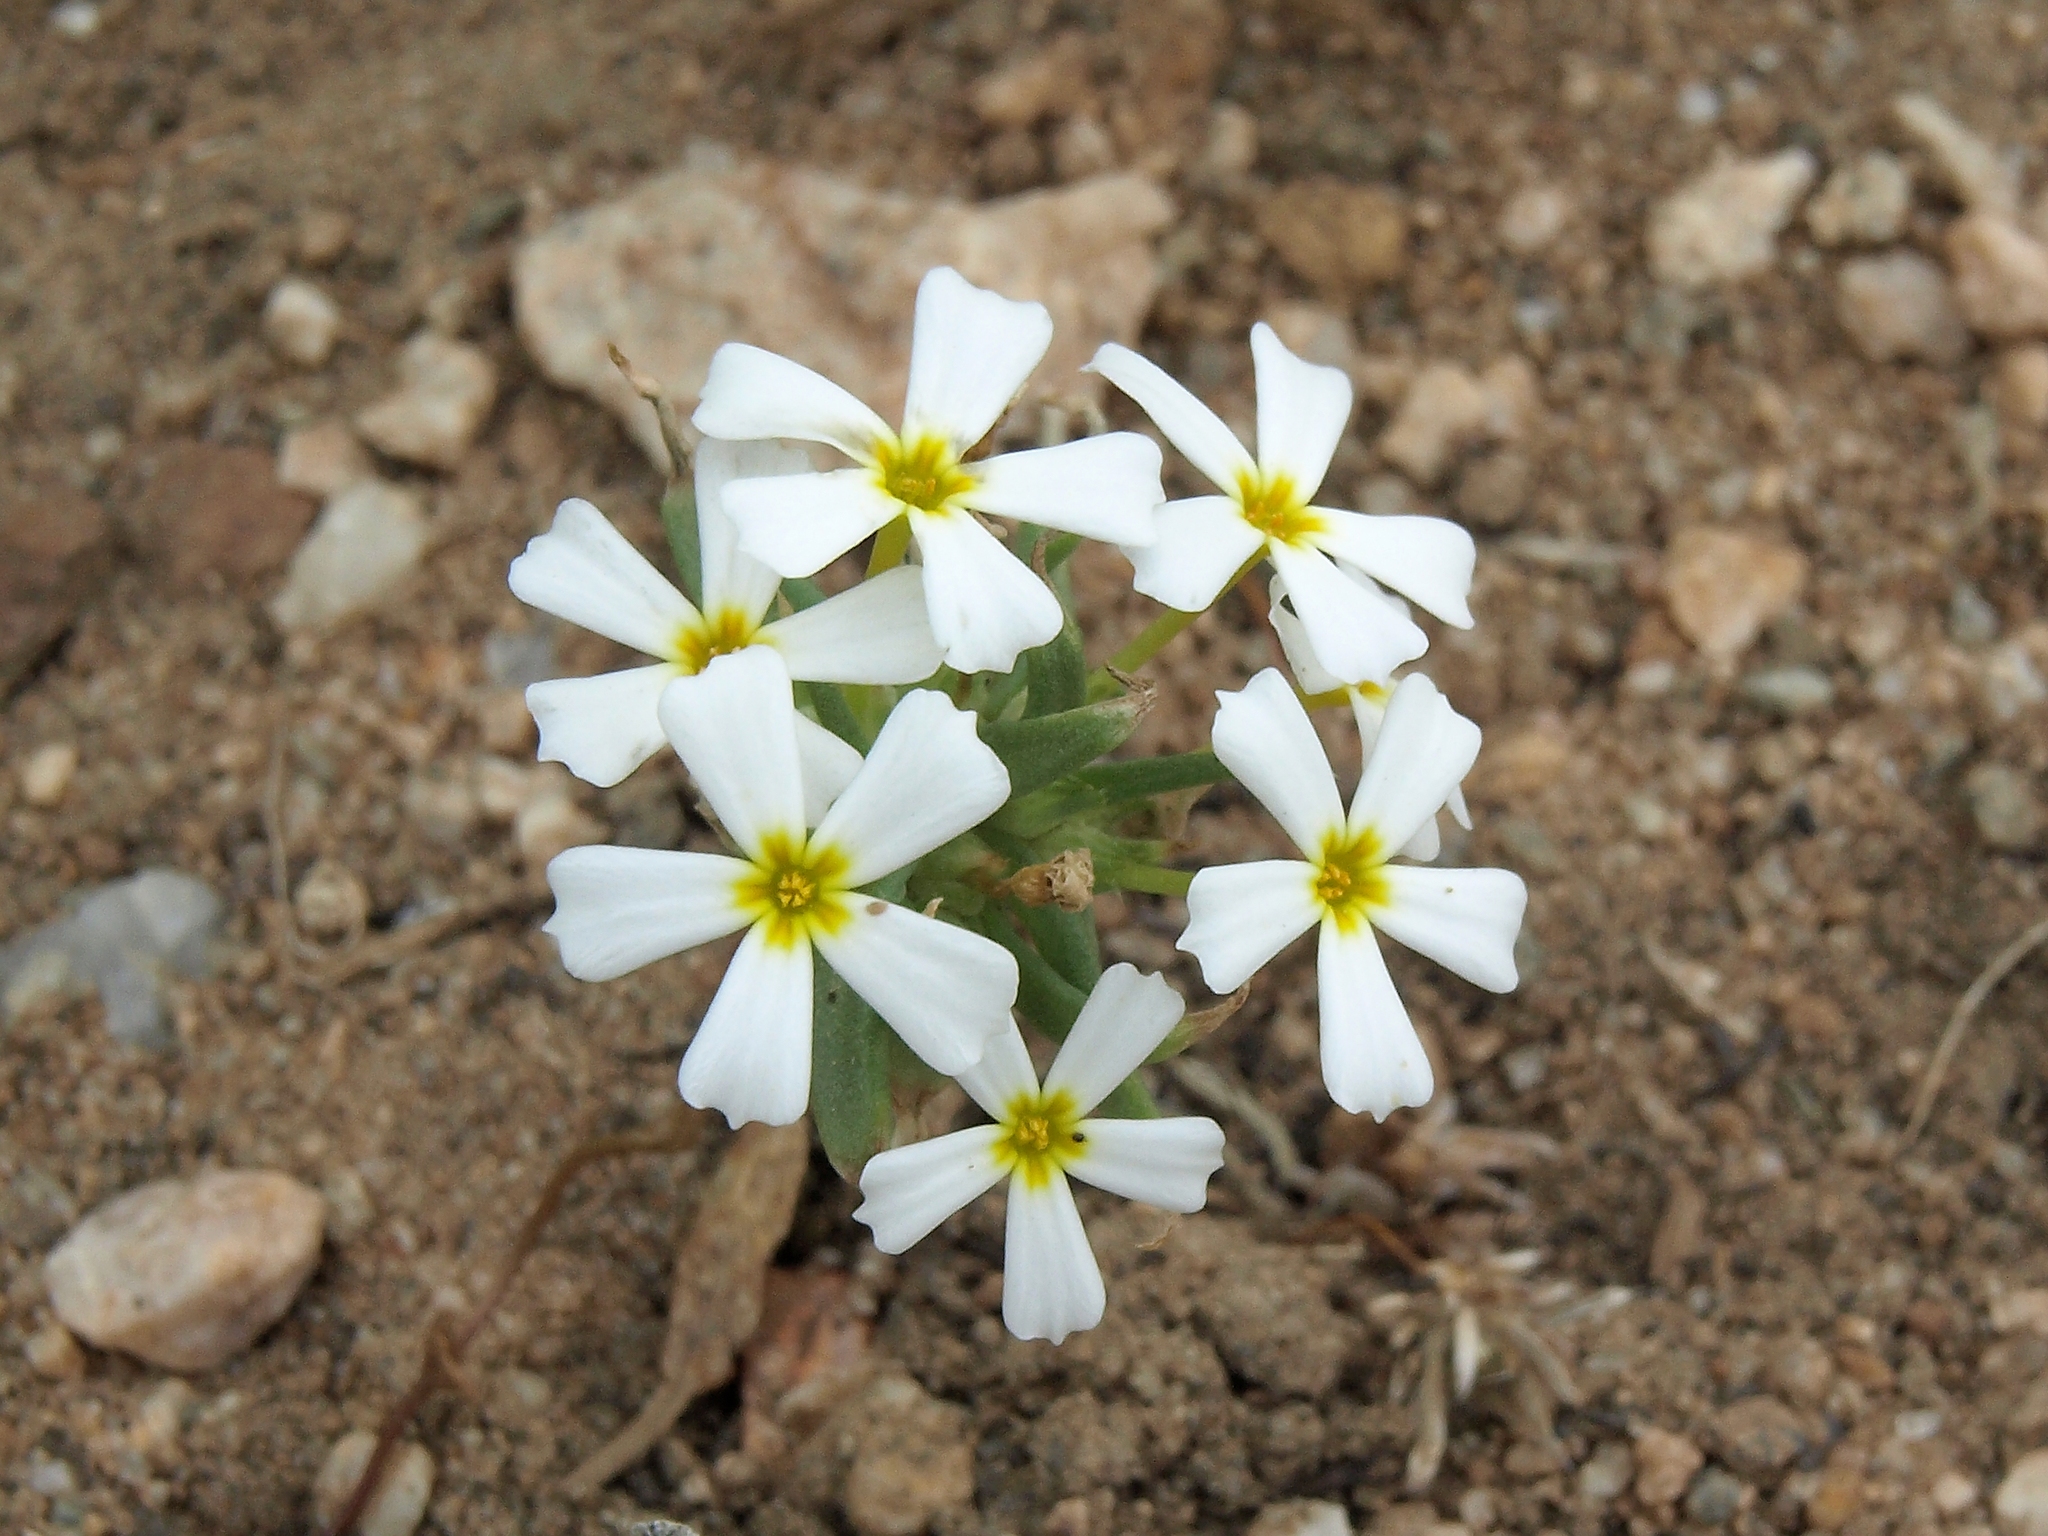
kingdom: Plantae
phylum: Tracheophyta
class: Magnoliopsida
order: Ericales
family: Polemoniaceae
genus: Gymnosteris
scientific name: Gymnosteris nudicaulis
